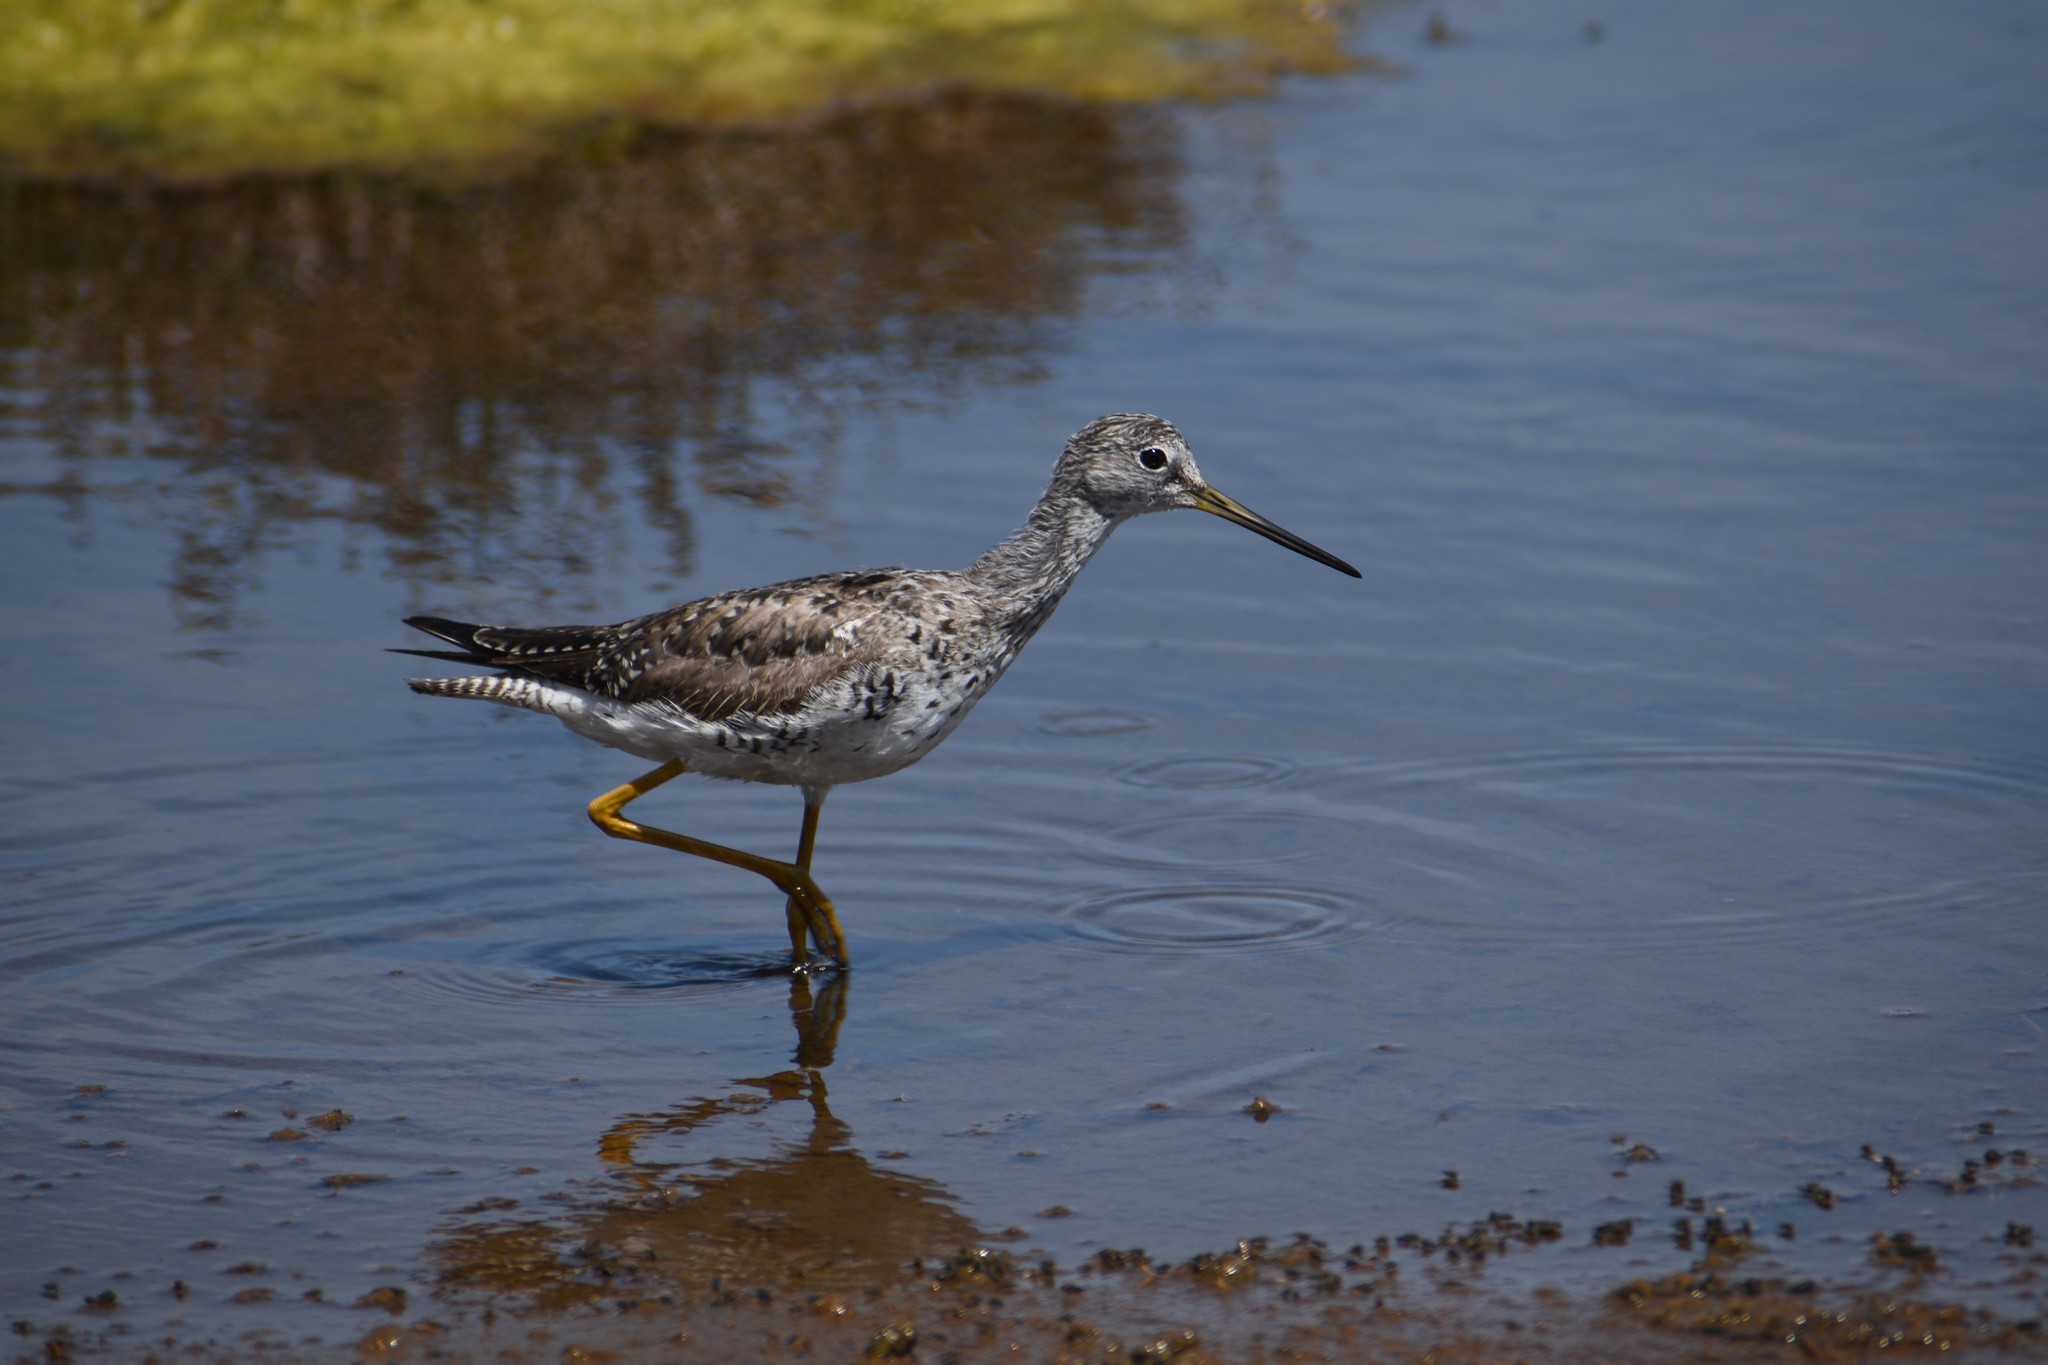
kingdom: Animalia
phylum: Chordata
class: Aves
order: Charadriiformes
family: Scolopacidae
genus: Tringa
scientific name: Tringa melanoleuca
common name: Greater yellowlegs
